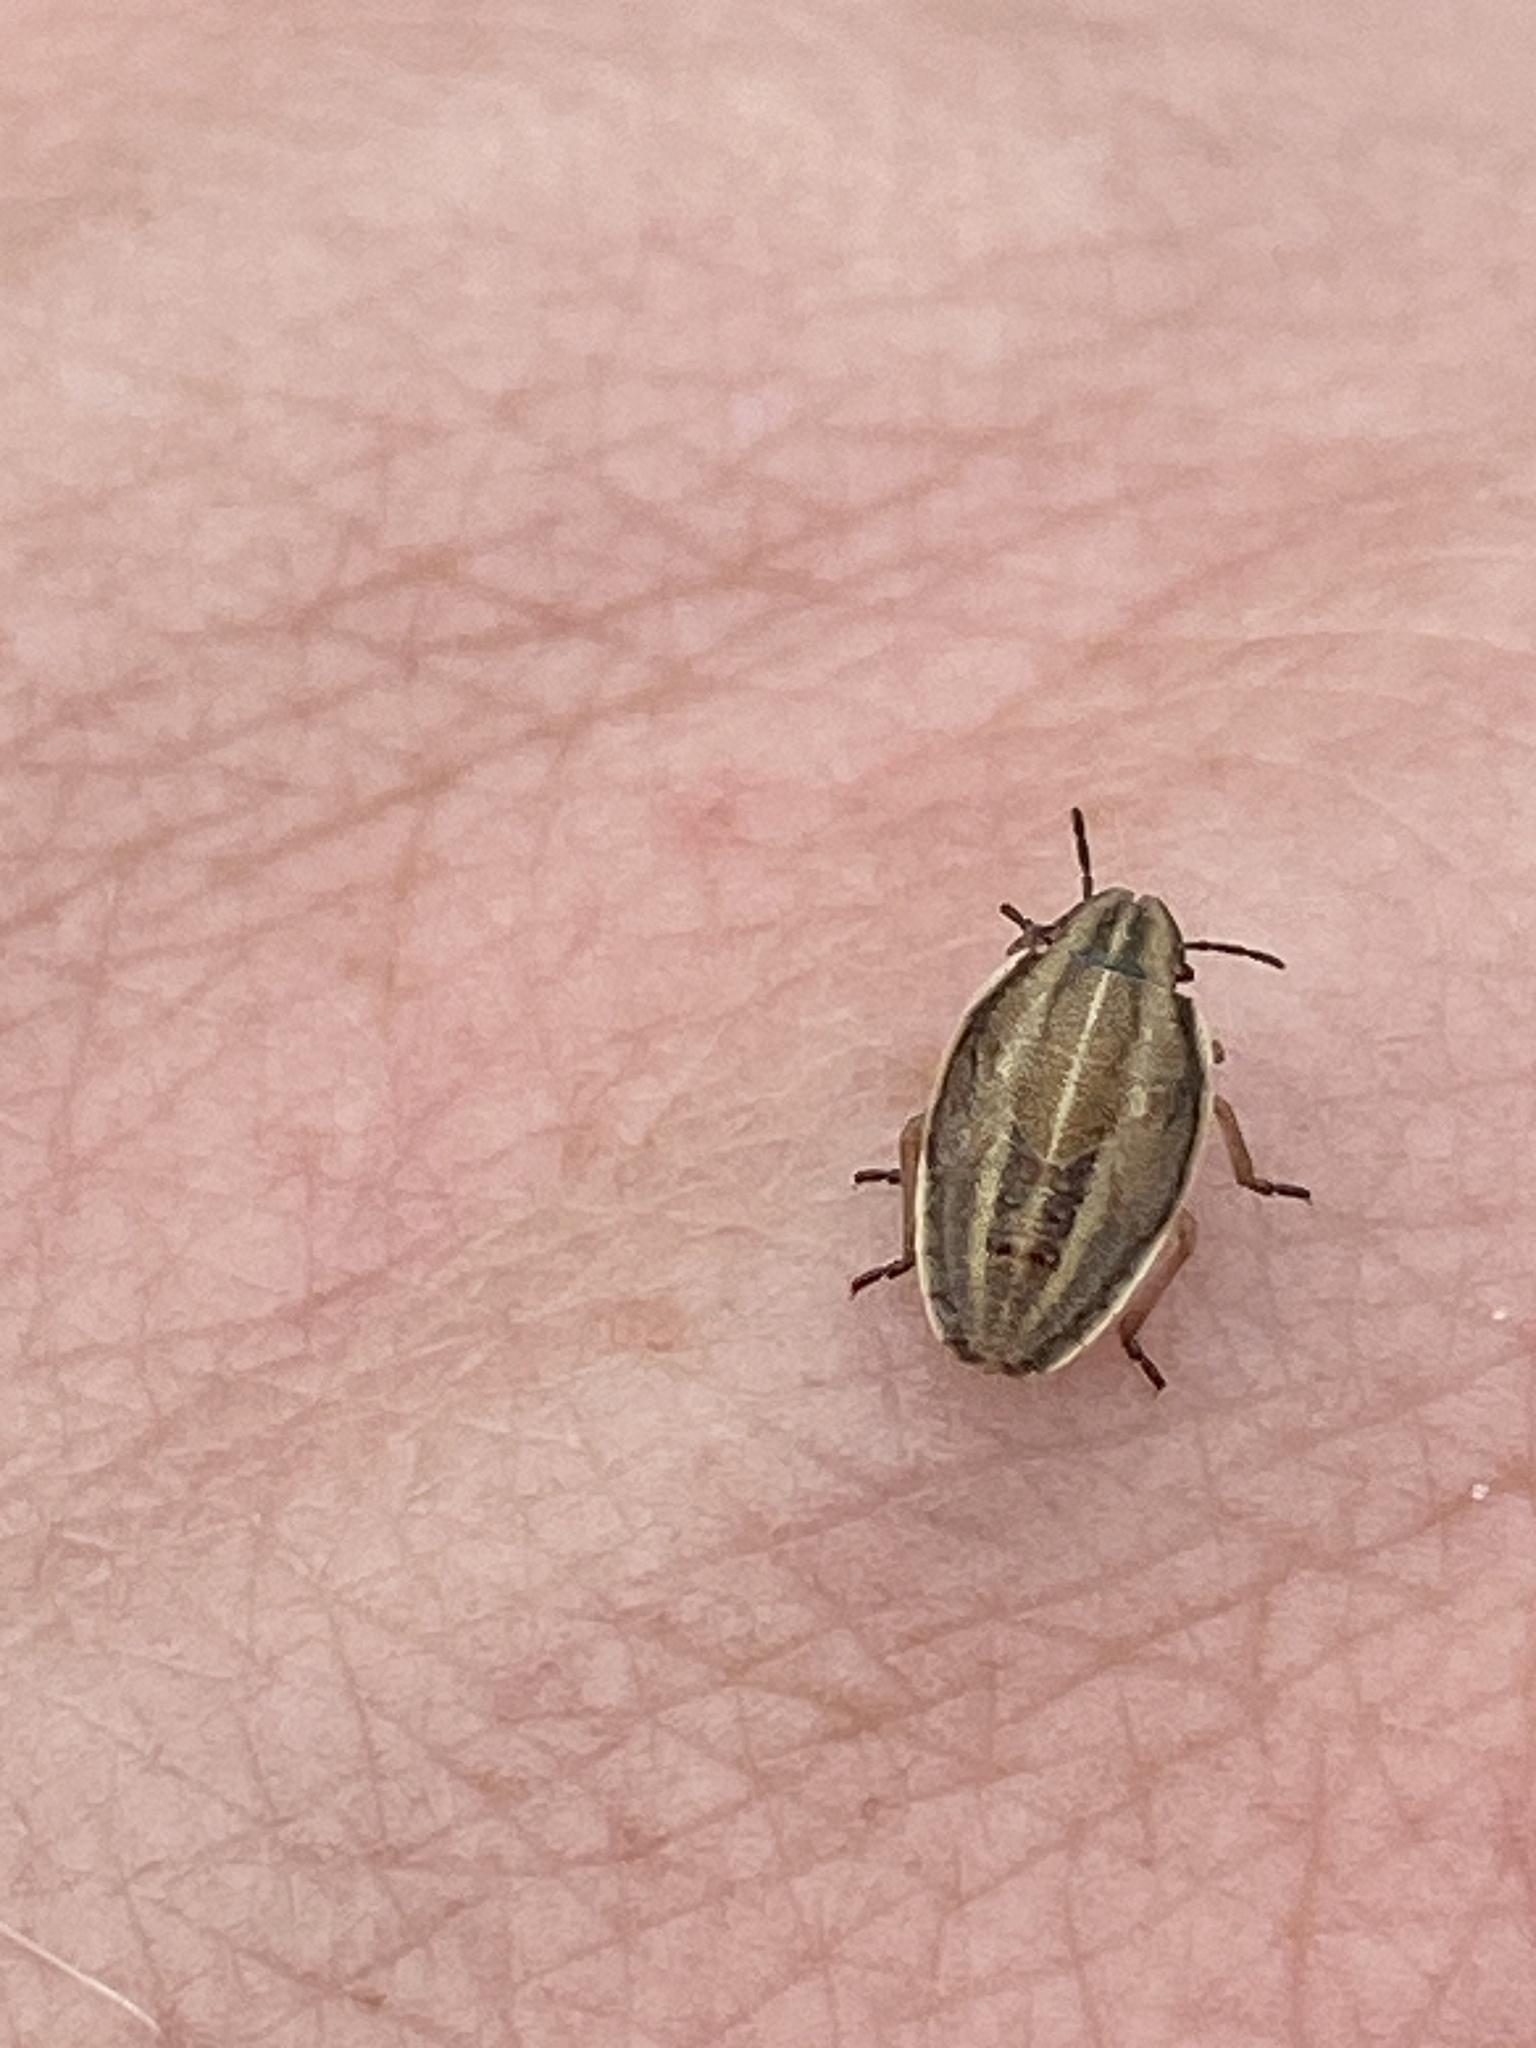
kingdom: Animalia
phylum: Arthropoda
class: Insecta
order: Hemiptera
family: Pentatomidae
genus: Aelia
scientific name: Aelia acuminata
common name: Bishop's mitre
